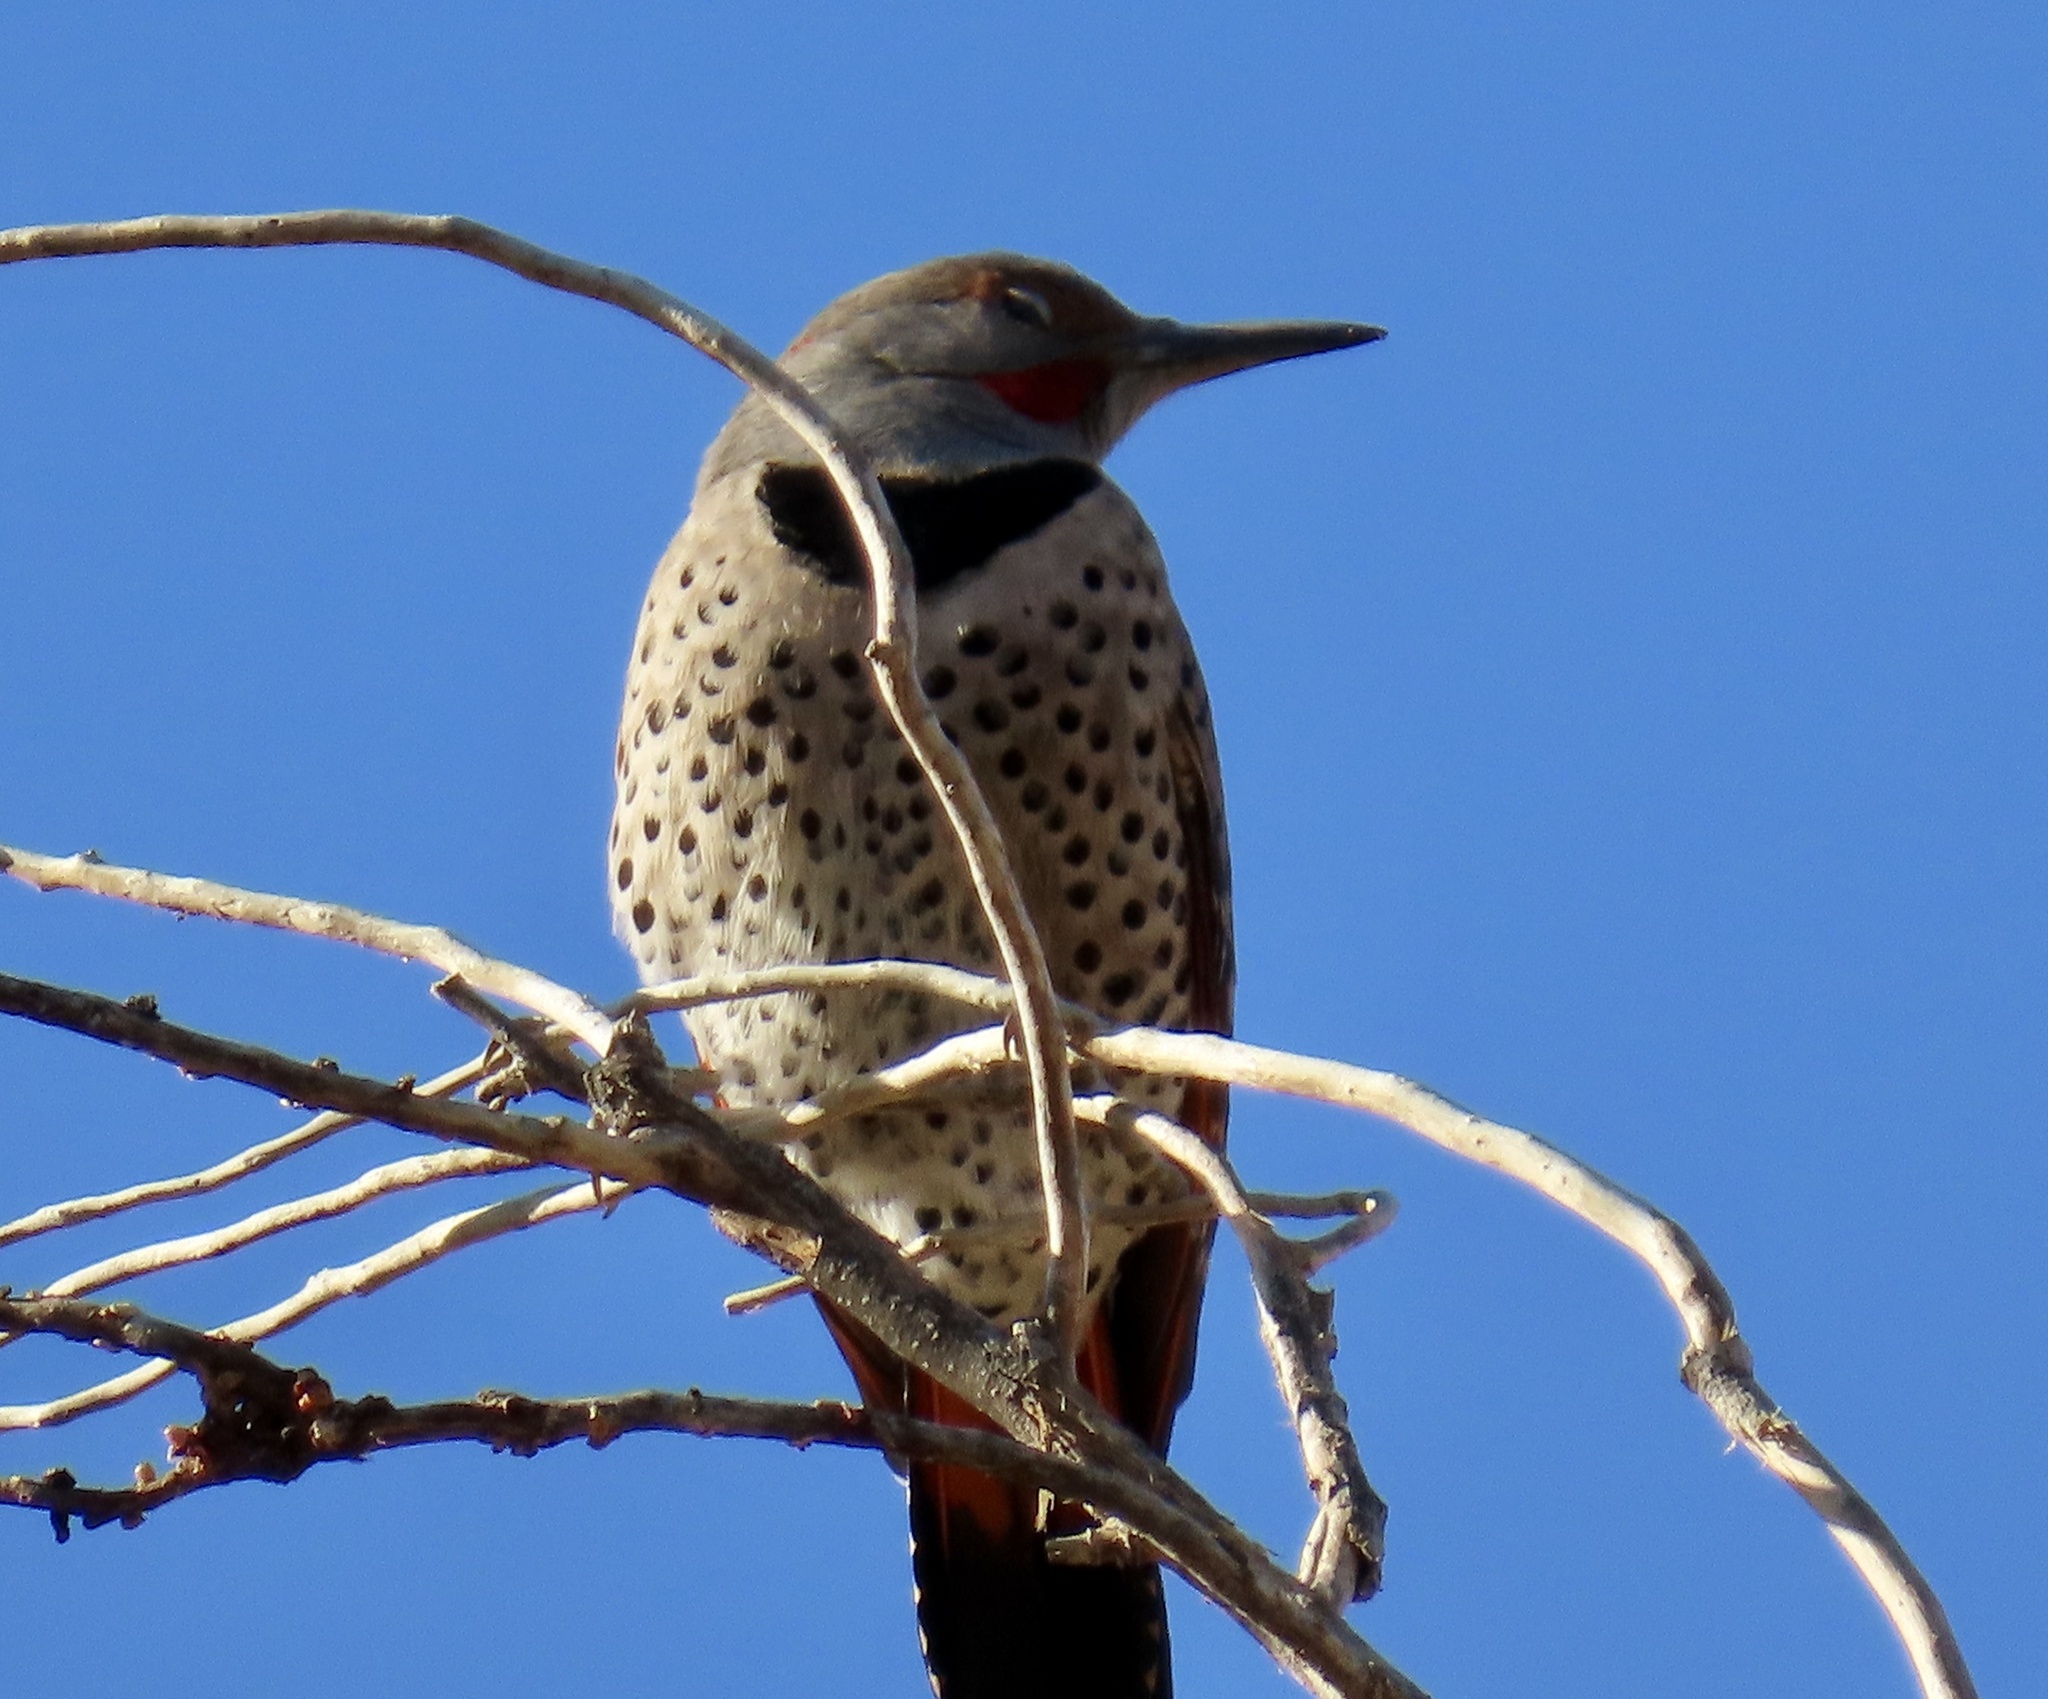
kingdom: Animalia
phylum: Chordata
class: Aves
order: Piciformes
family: Picidae
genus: Colaptes
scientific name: Colaptes auratus
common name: Northern flicker
